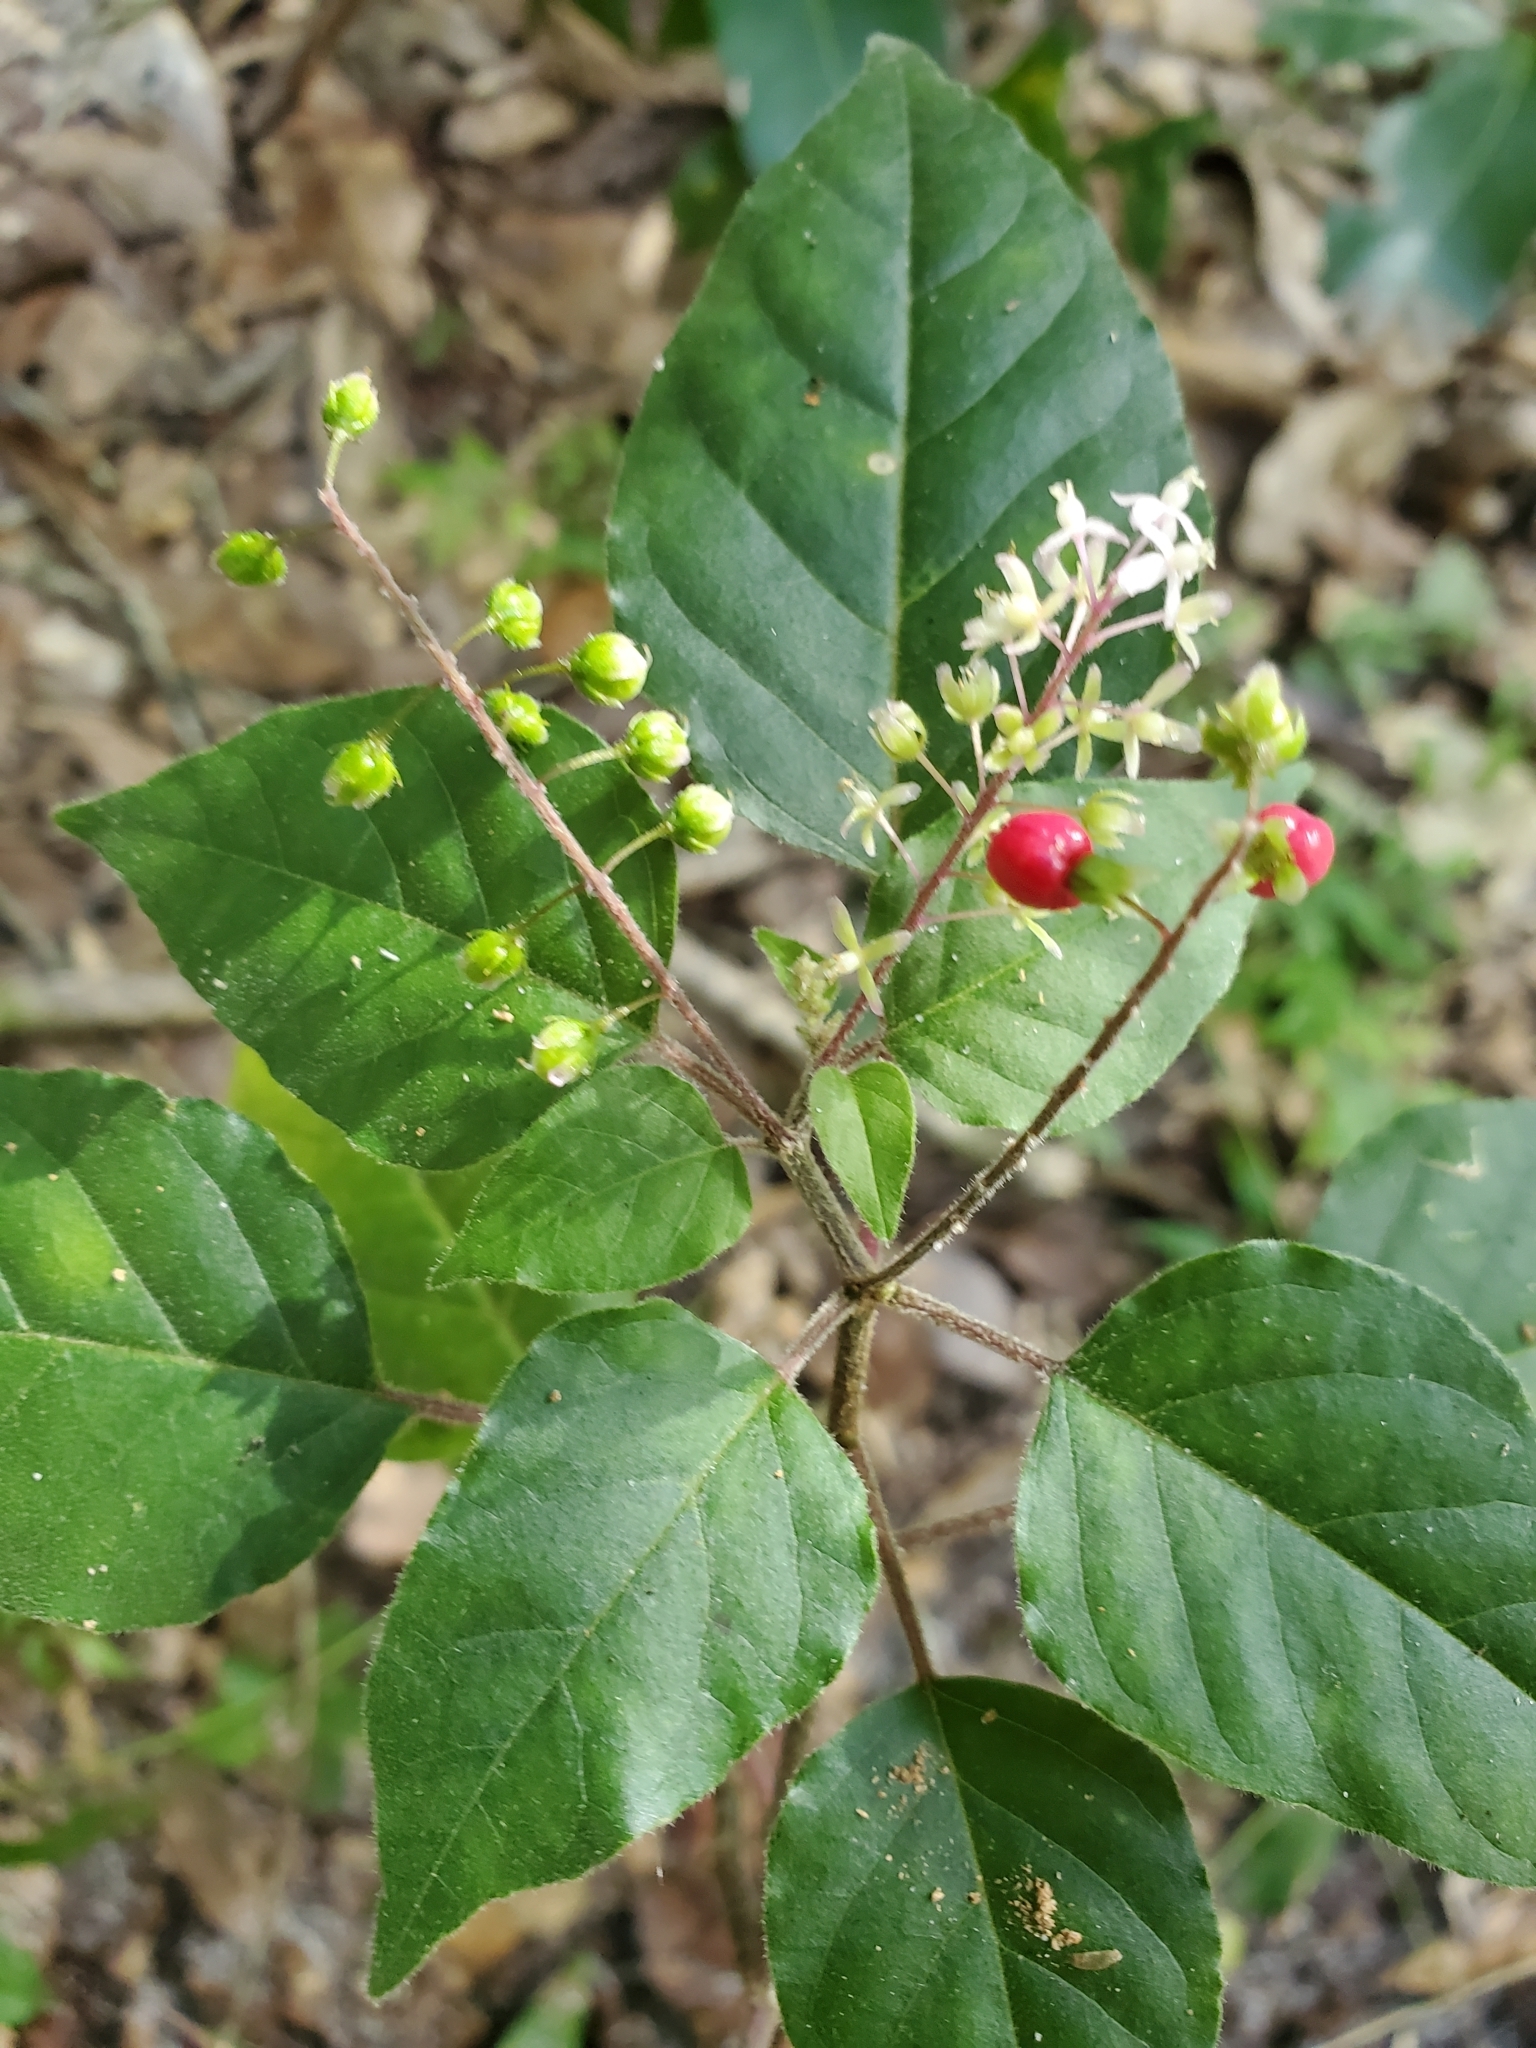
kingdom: Plantae
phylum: Tracheophyta
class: Magnoliopsida
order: Caryophyllales
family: Phytolaccaceae
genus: Rivina
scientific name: Rivina humilis
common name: Rougeplant
